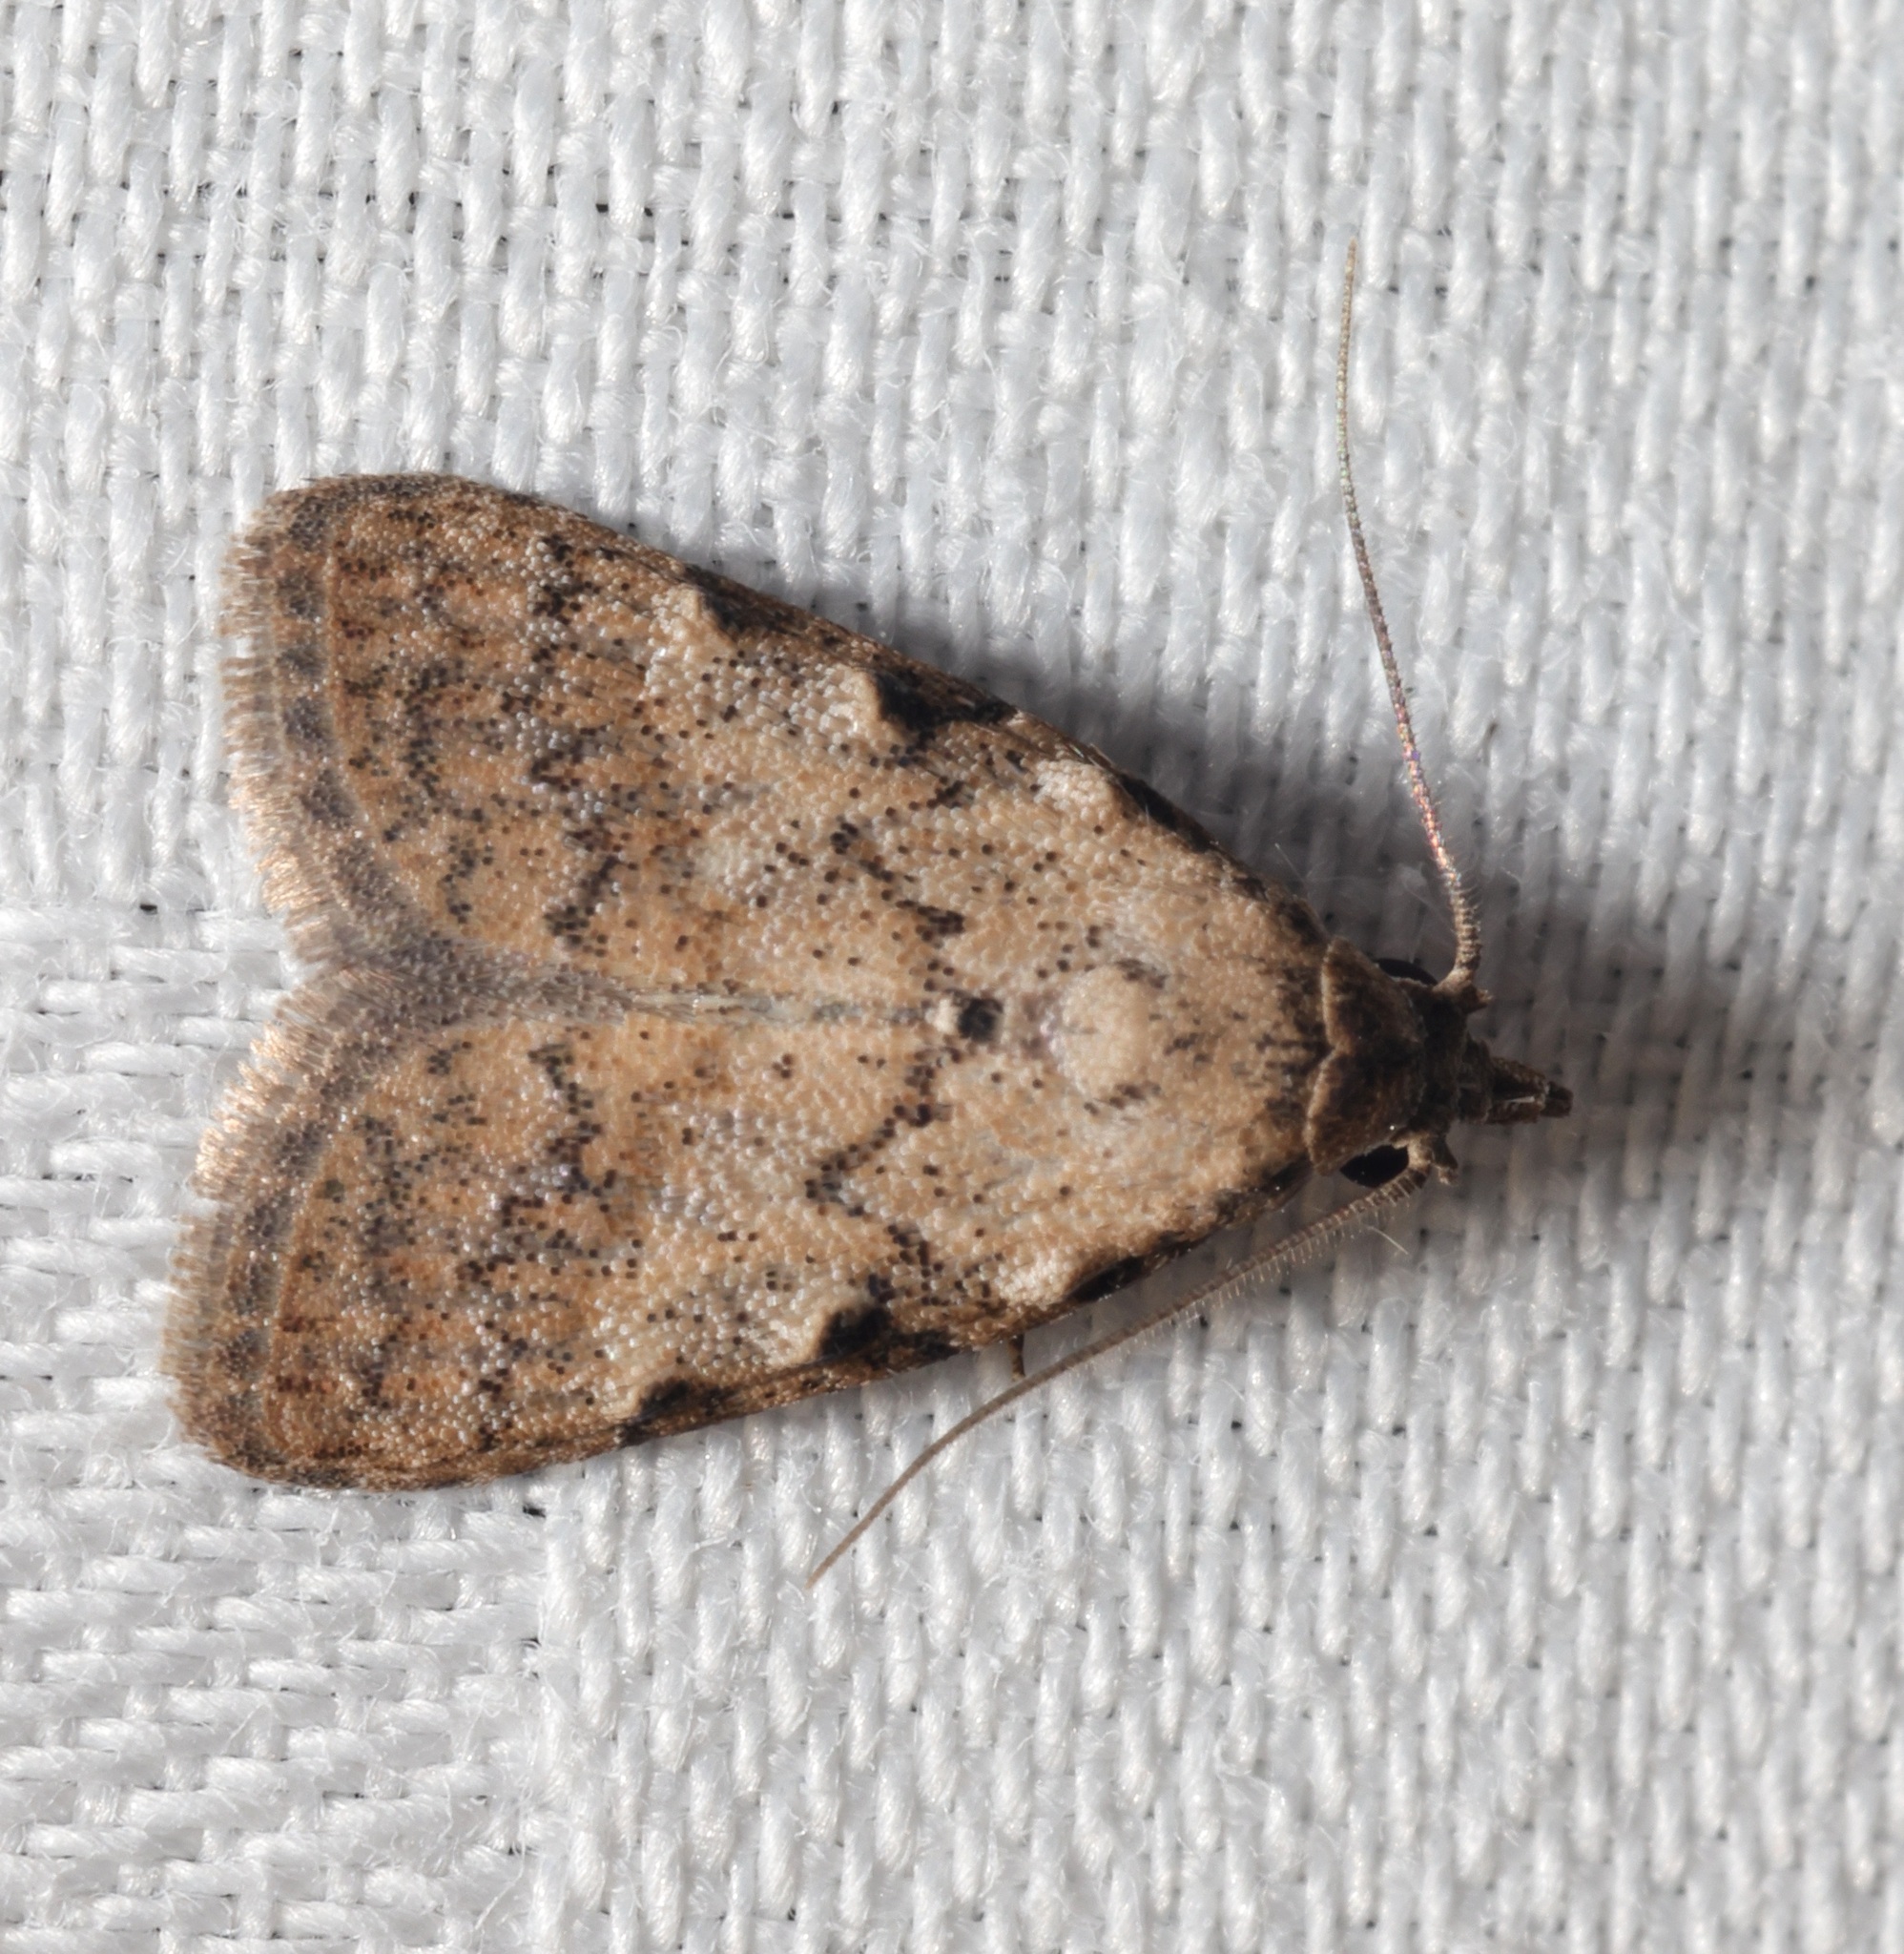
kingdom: Animalia
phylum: Arthropoda
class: Insecta
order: Lepidoptera
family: Nolidae
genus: Nola
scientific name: Nola ceylonica
